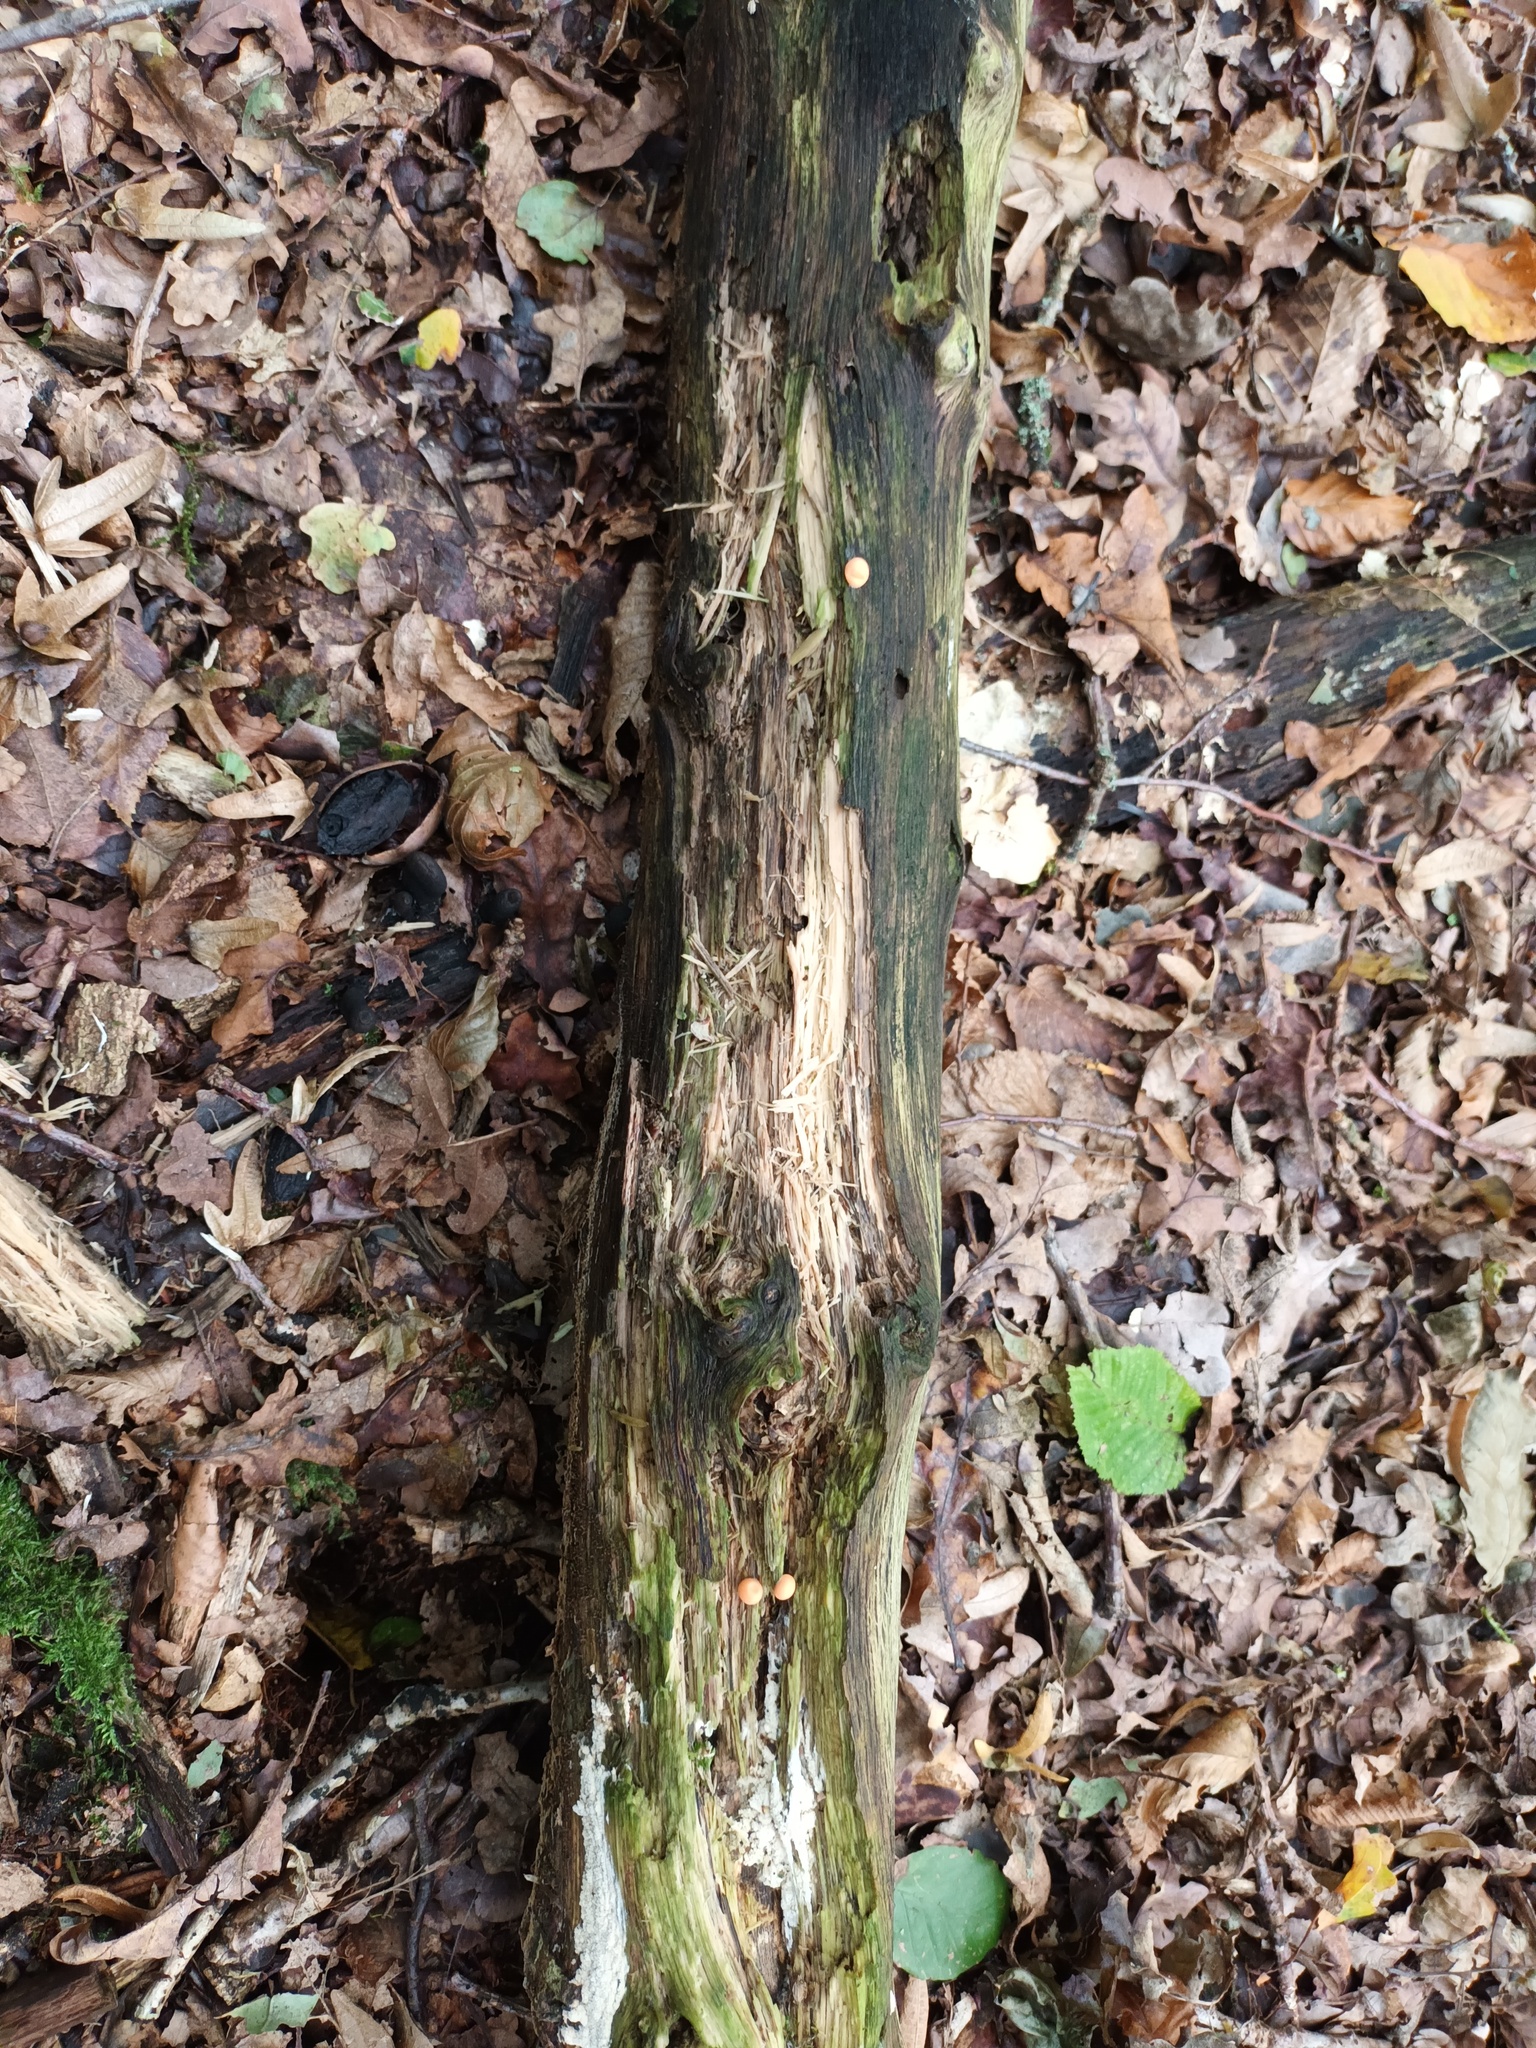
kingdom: Protozoa
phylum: Mycetozoa
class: Myxomycetes
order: Cribrariales
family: Tubiferaceae
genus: Lycogala
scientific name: Lycogala epidendrum
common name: Wolf's milk
